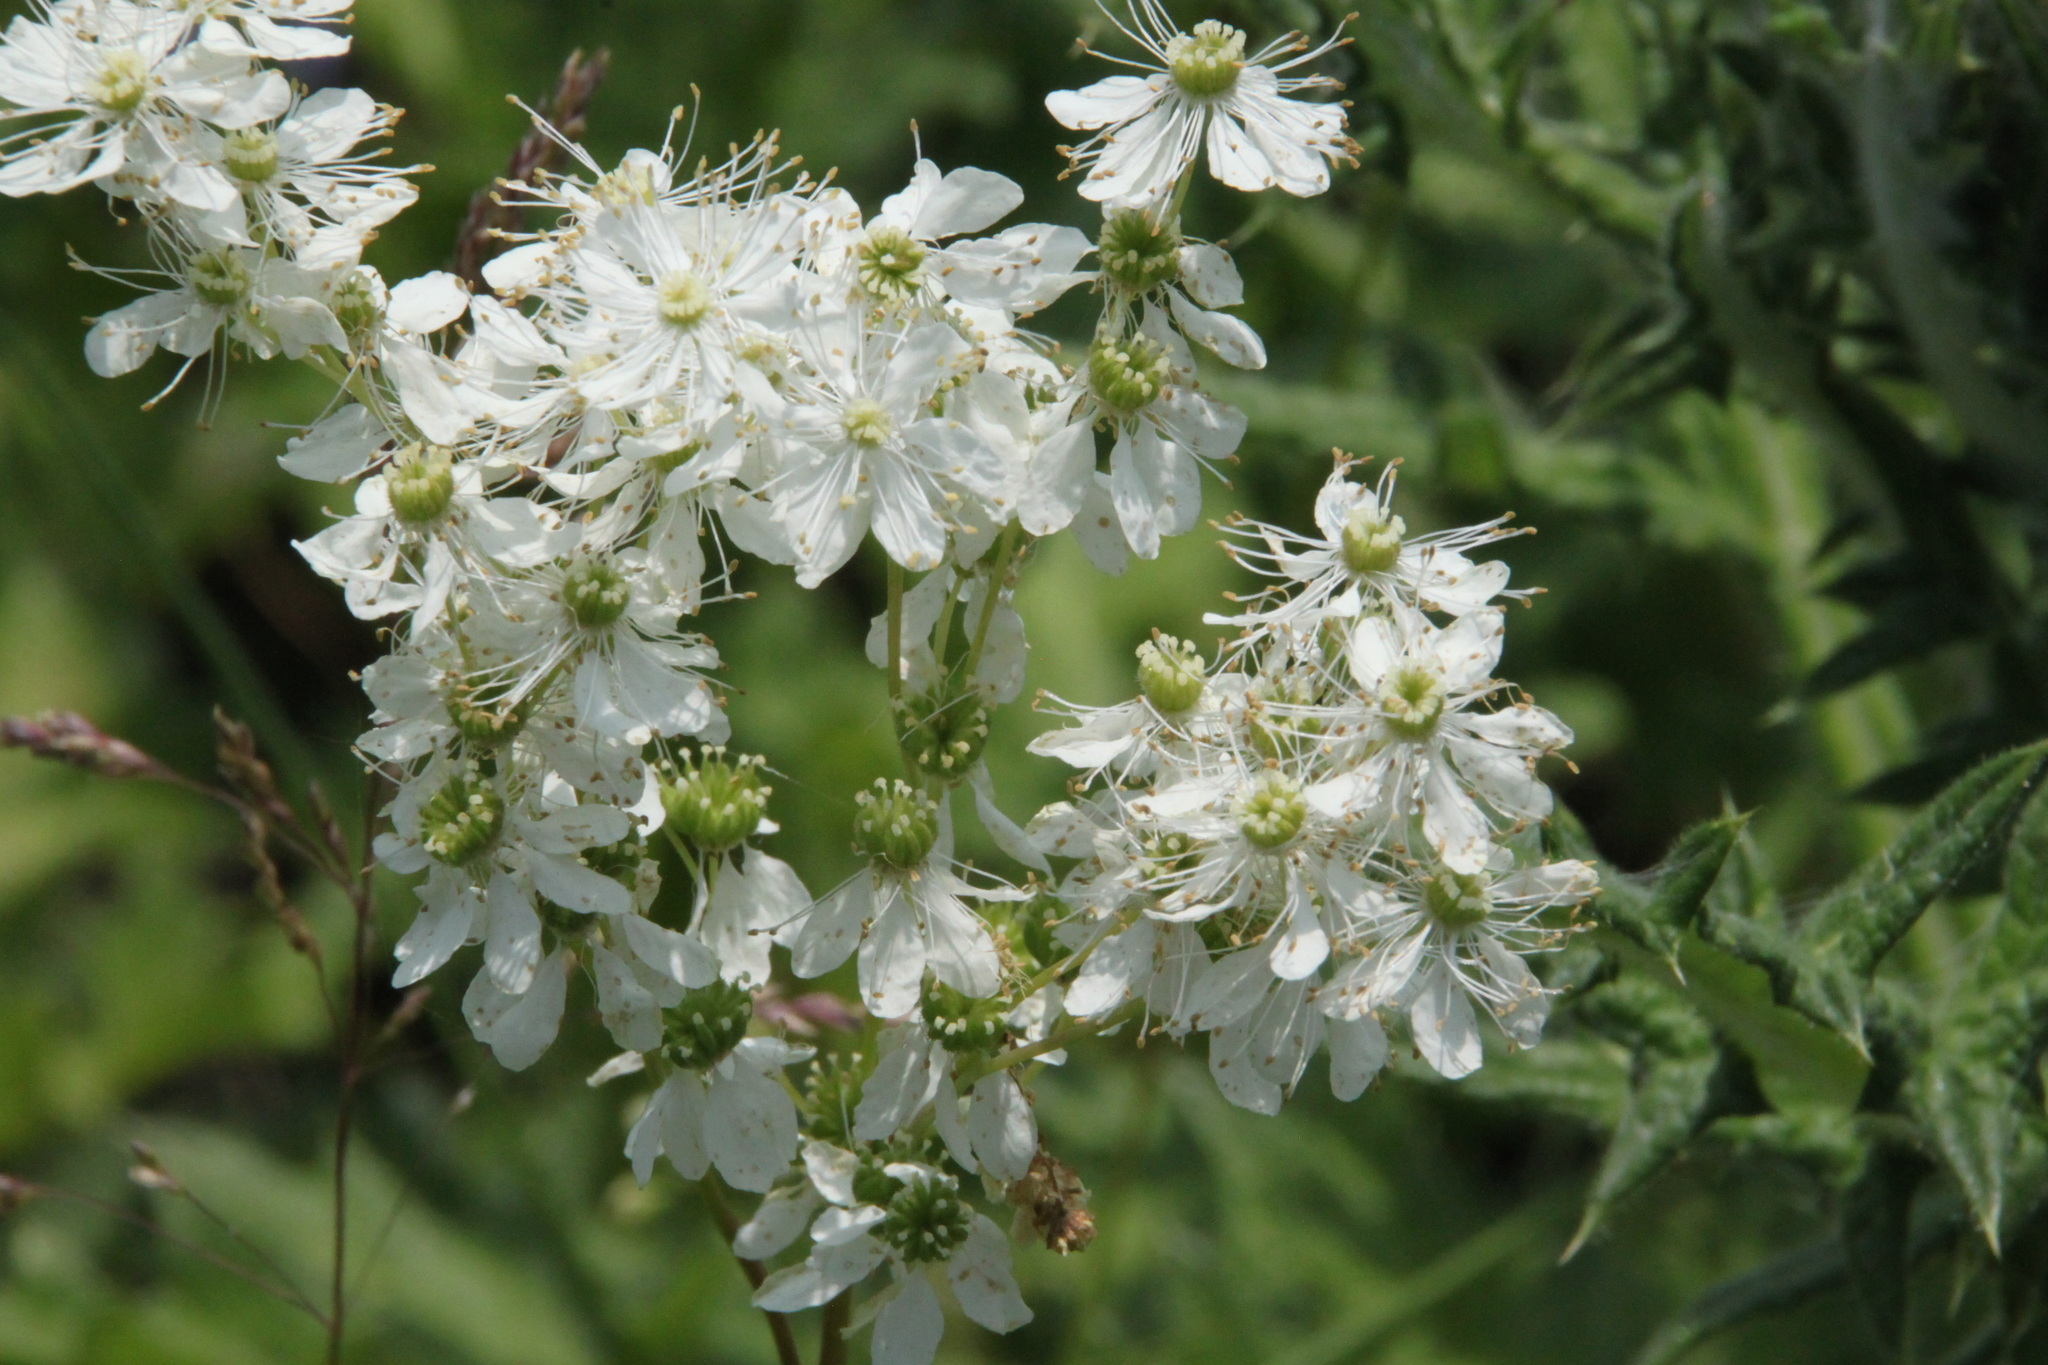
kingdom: Plantae
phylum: Tracheophyta
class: Magnoliopsida
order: Rosales
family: Rosaceae
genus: Filipendula
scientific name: Filipendula vulgaris
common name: Dropwort
